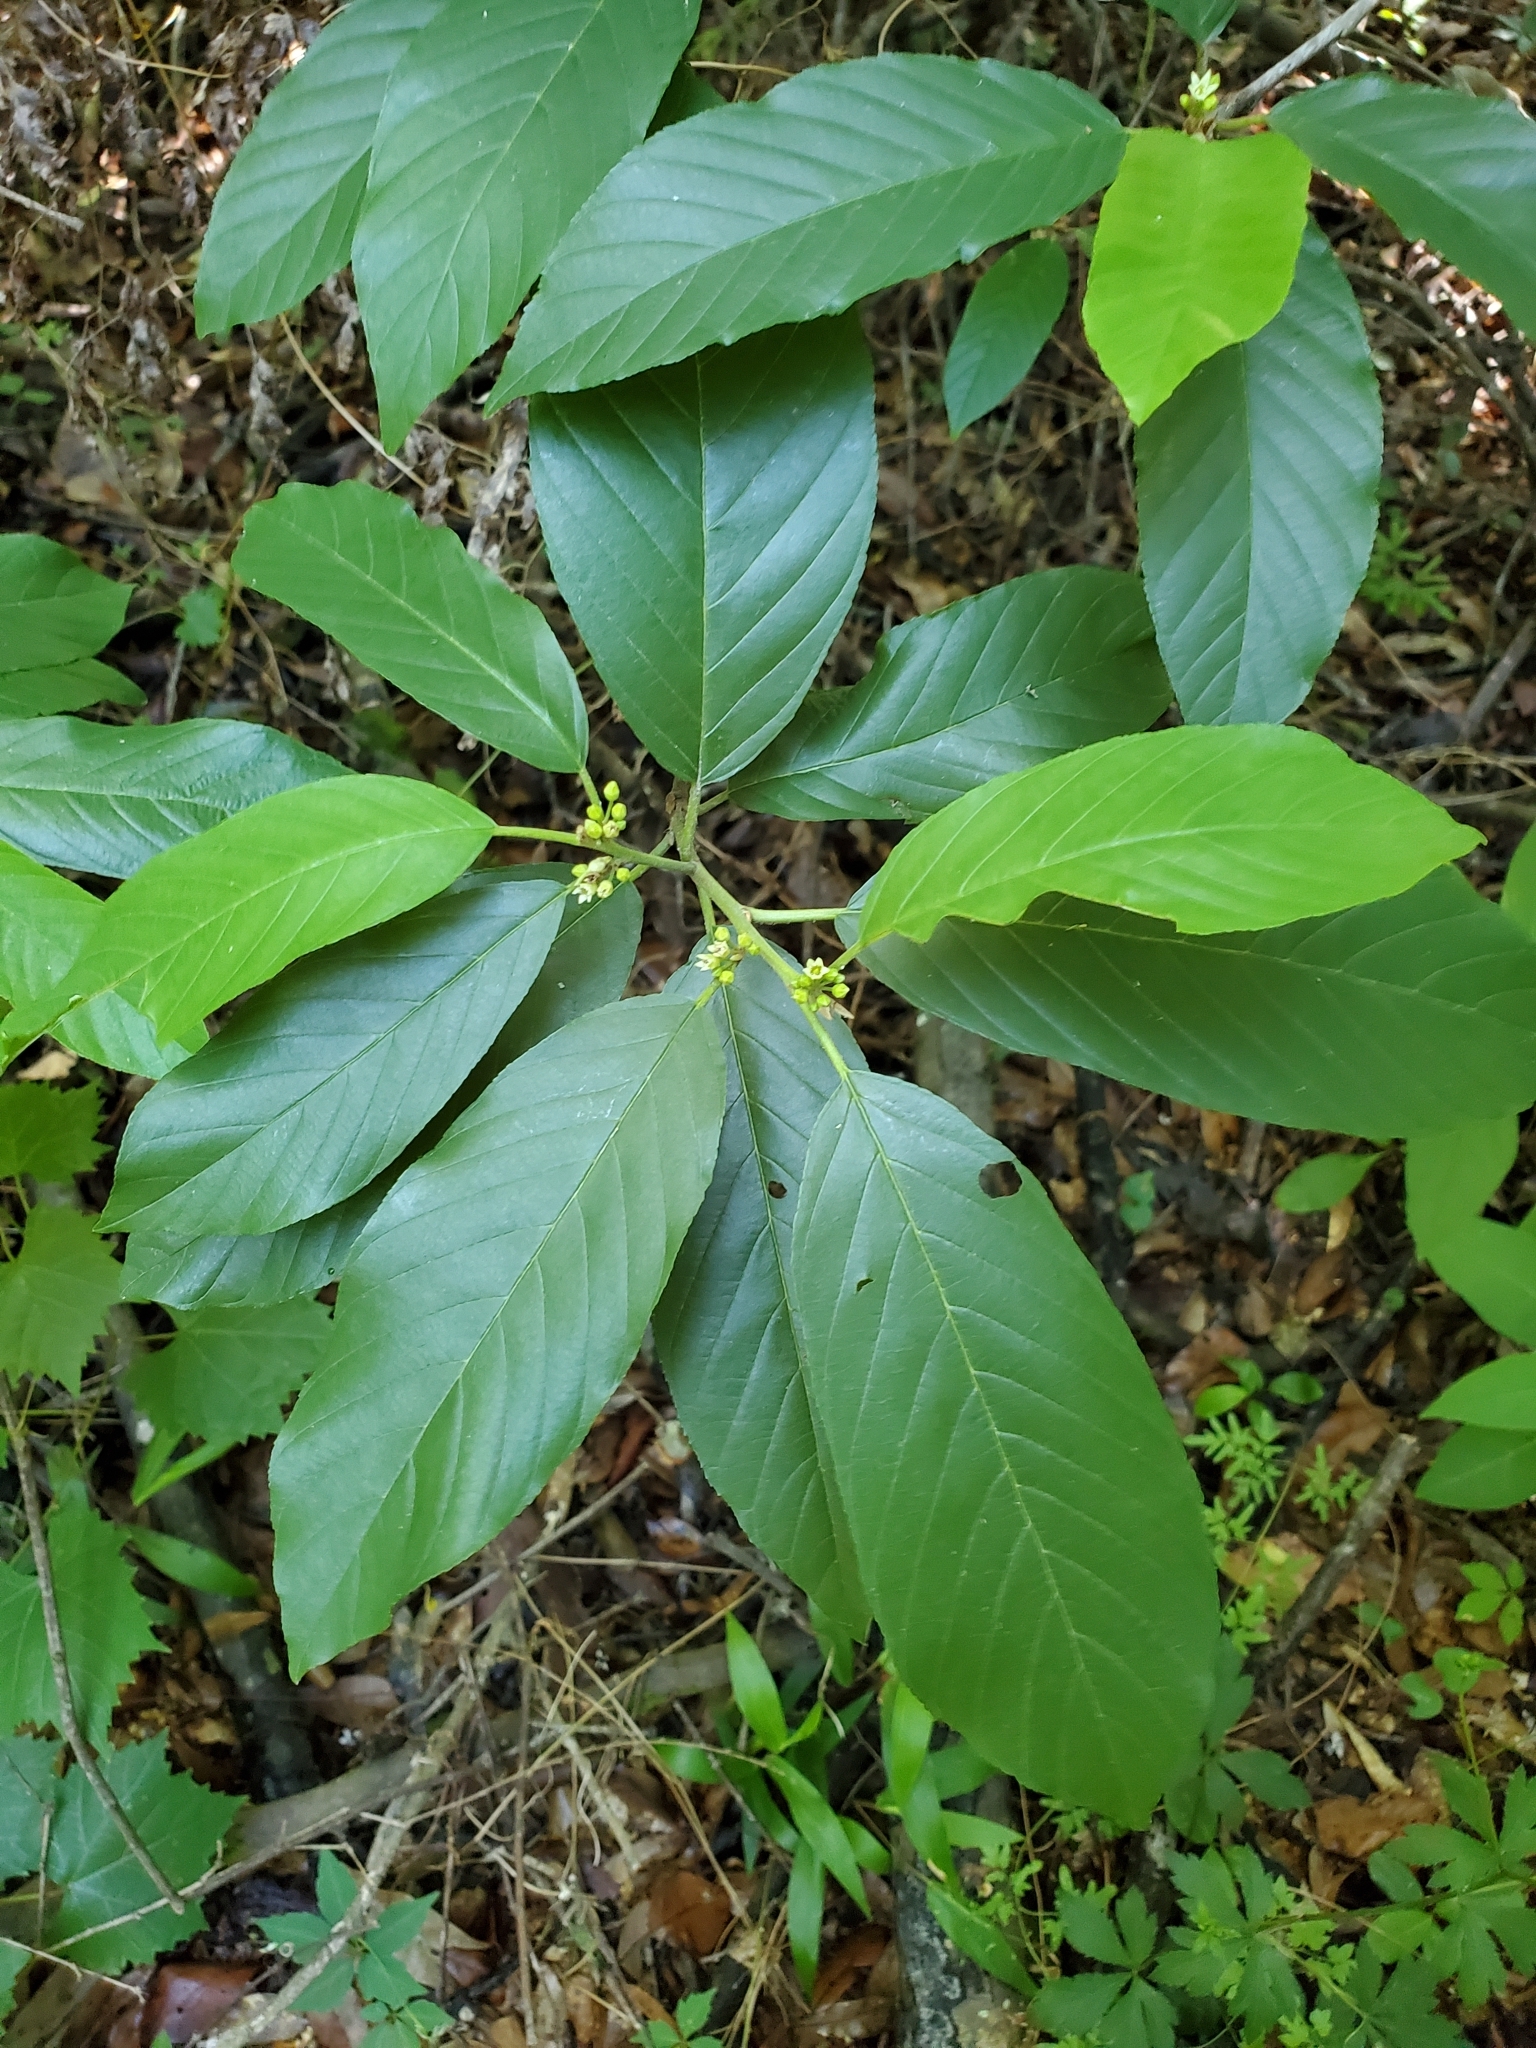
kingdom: Plantae
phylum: Tracheophyta
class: Magnoliopsida
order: Rosales
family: Rhamnaceae
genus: Frangula
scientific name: Frangula caroliniana
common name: Carolina buckthorn
